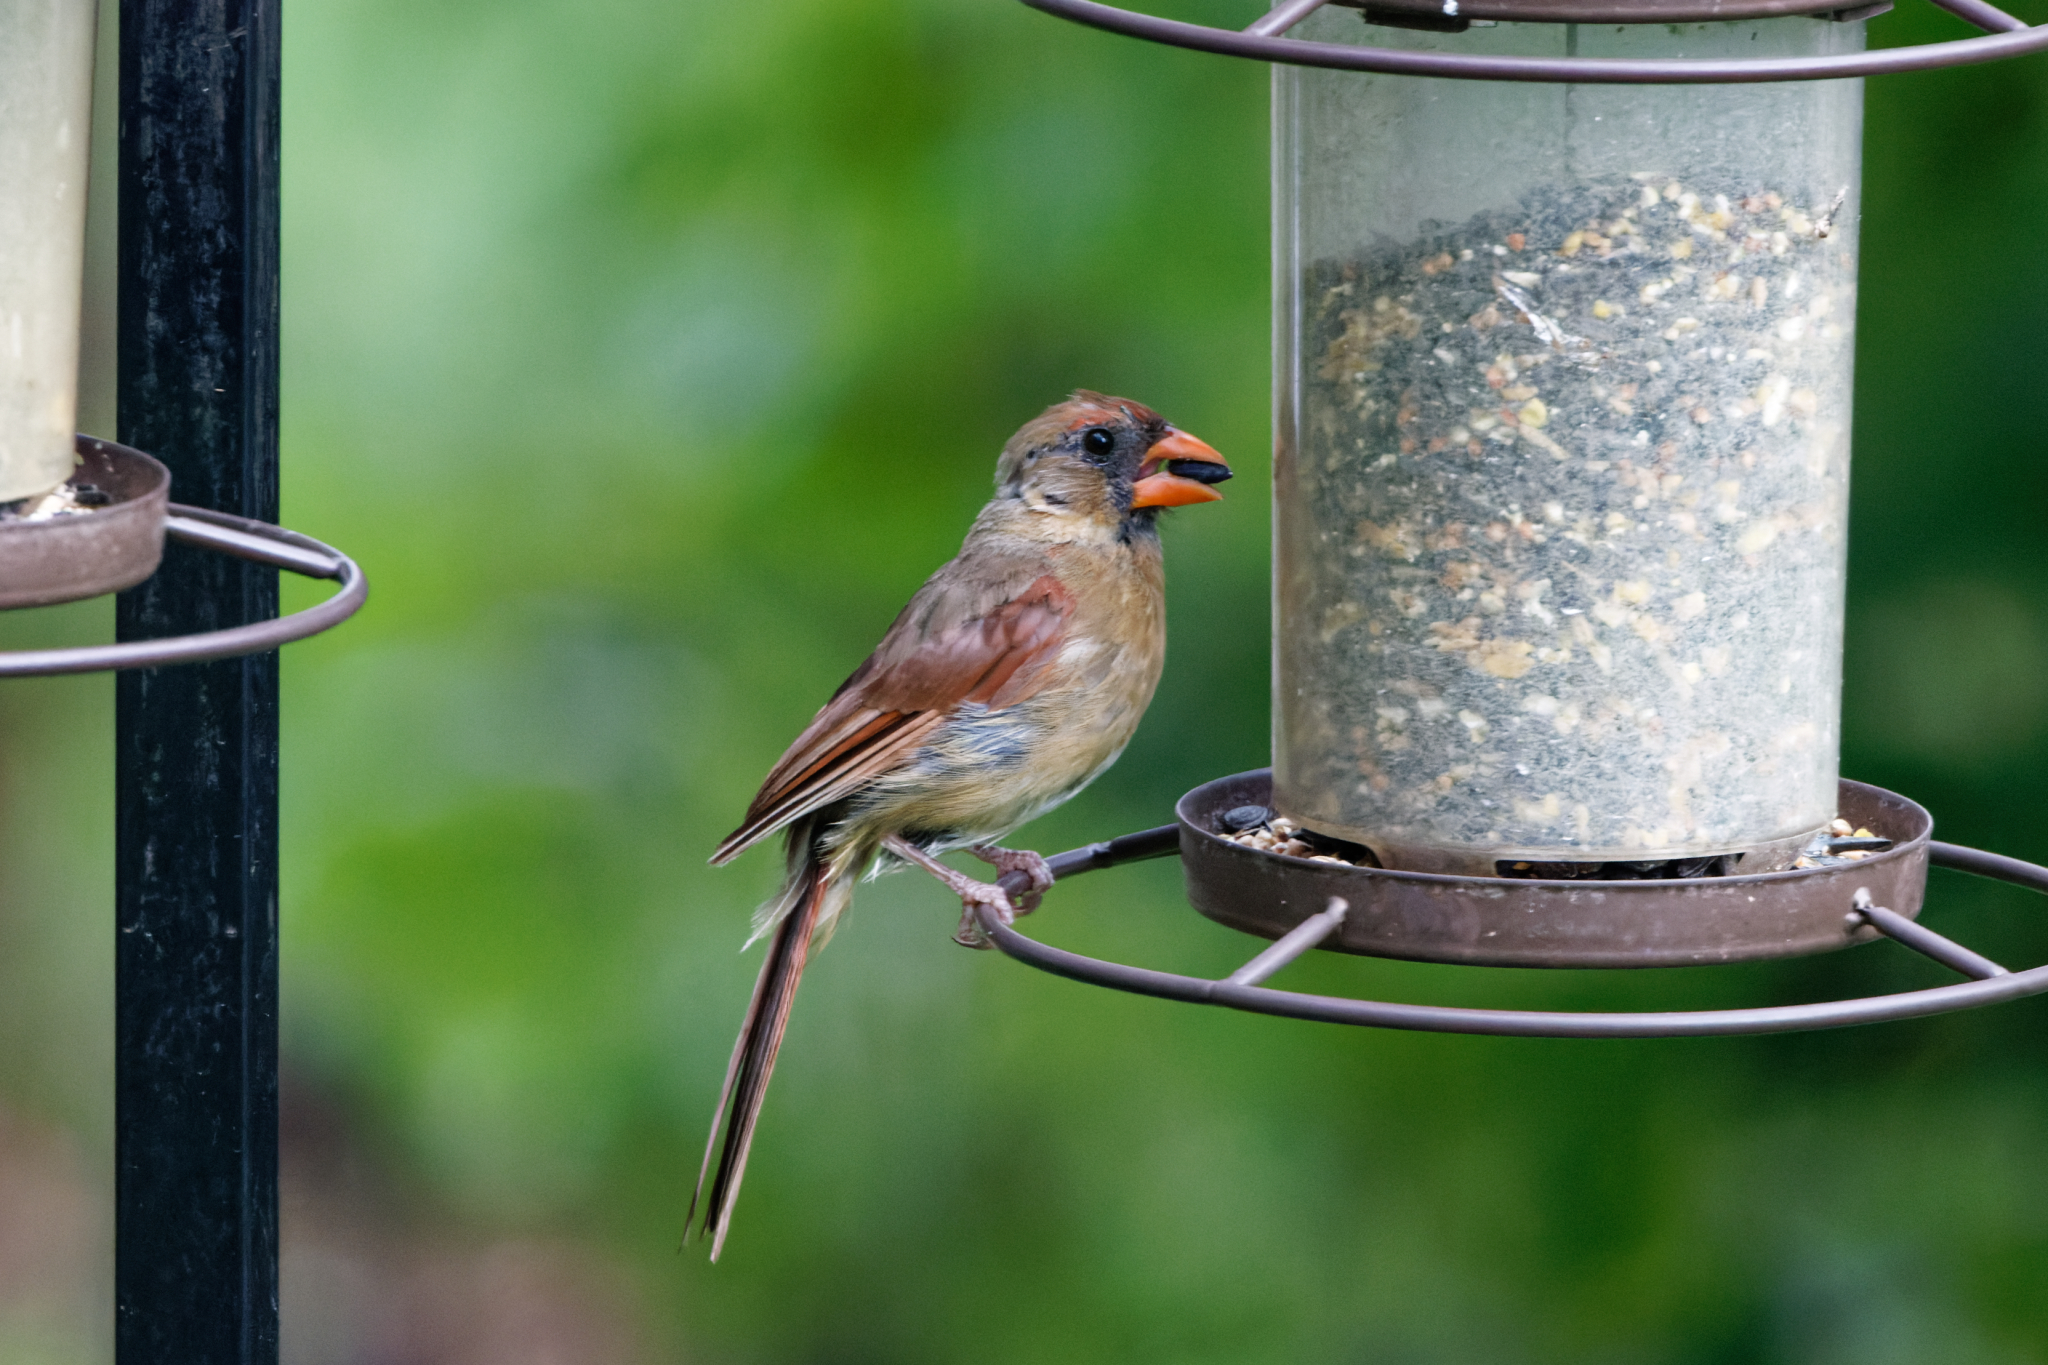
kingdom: Animalia
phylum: Chordata
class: Aves
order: Passeriformes
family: Cardinalidae
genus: Cardinalis
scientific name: Cardinalis cardinalis
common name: Northern cardinal
